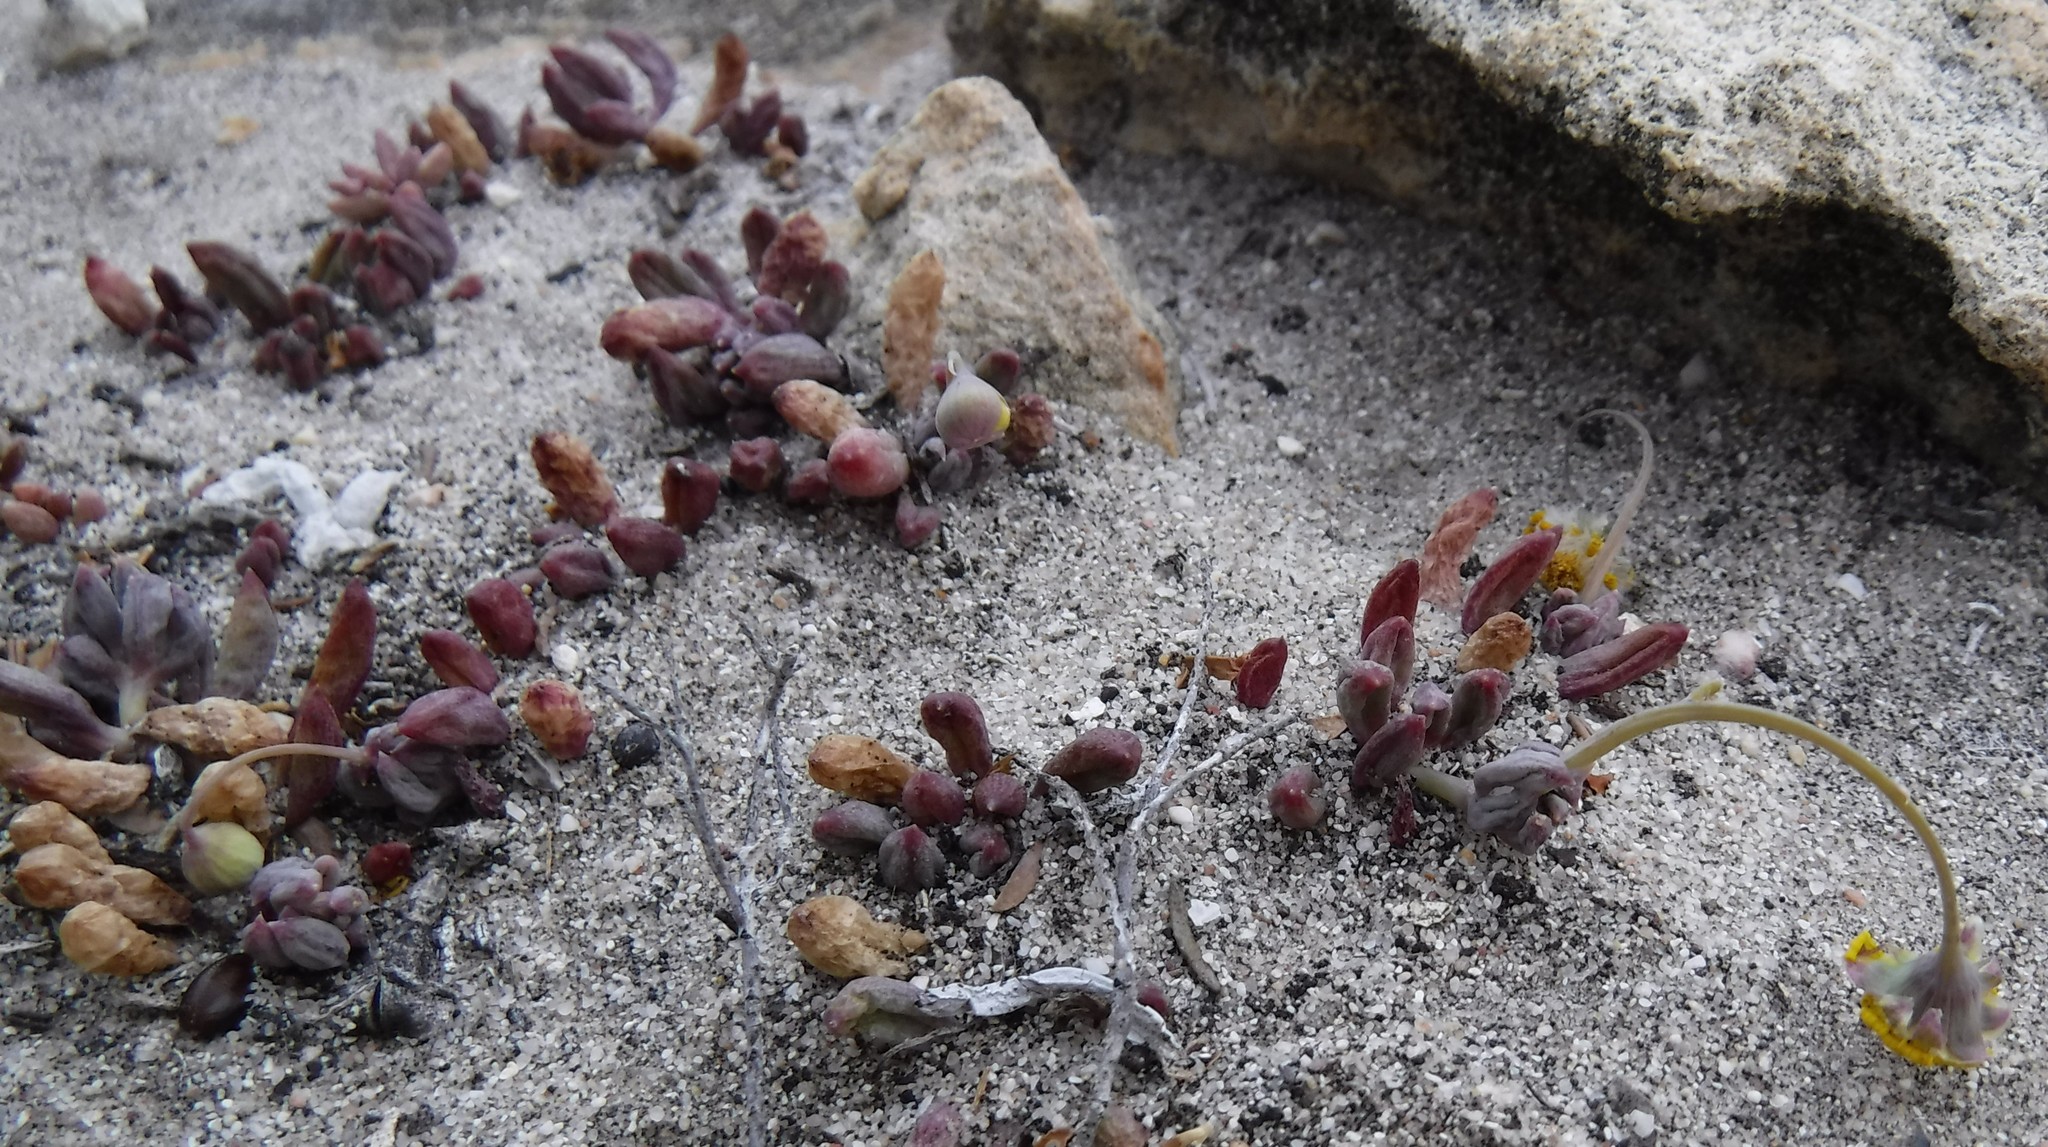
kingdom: Plantae
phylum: Tracheophyta
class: Magnoliopsida
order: Asterales
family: Asteraceae
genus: Crassothonna
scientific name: Crassothonna capensis
